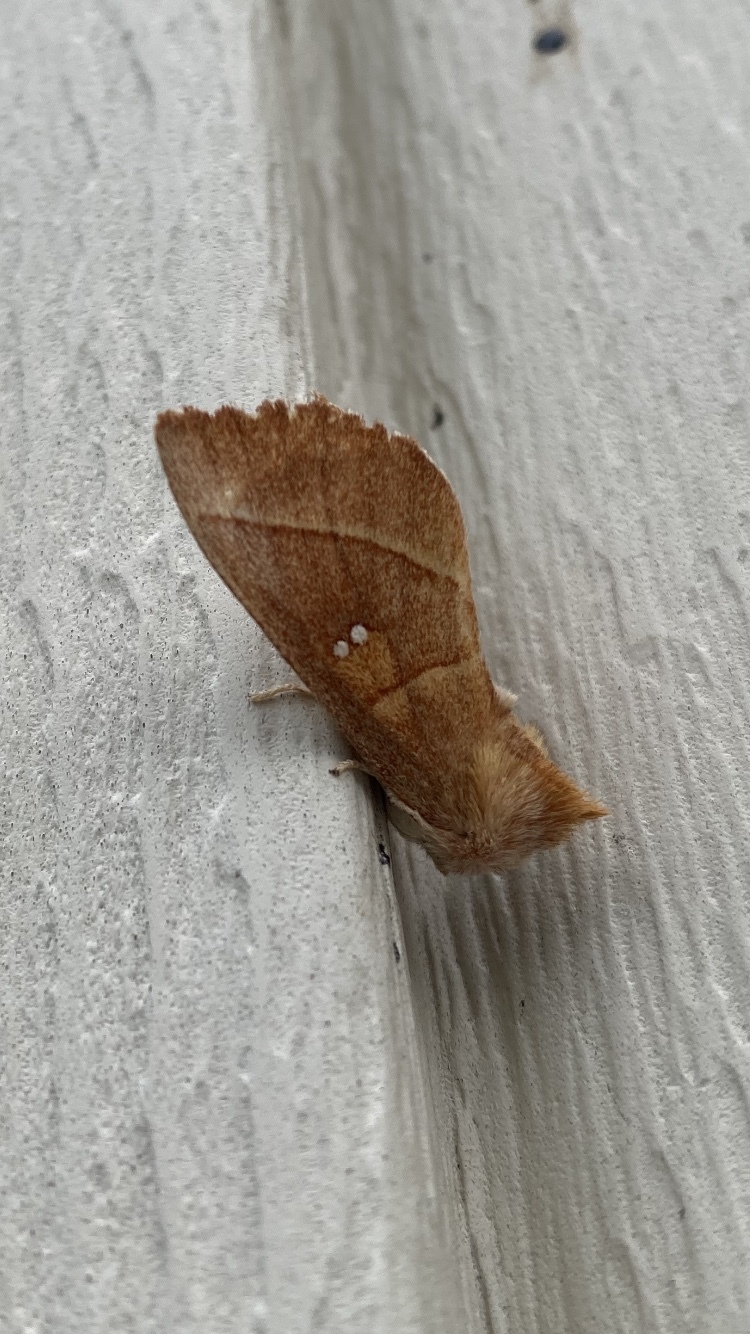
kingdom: Animalia
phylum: Arthropoda
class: Insecta
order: Lepidoptera
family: Notodontidae
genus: Nadata
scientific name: Nadata gibbosa
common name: White-dotted prominent
